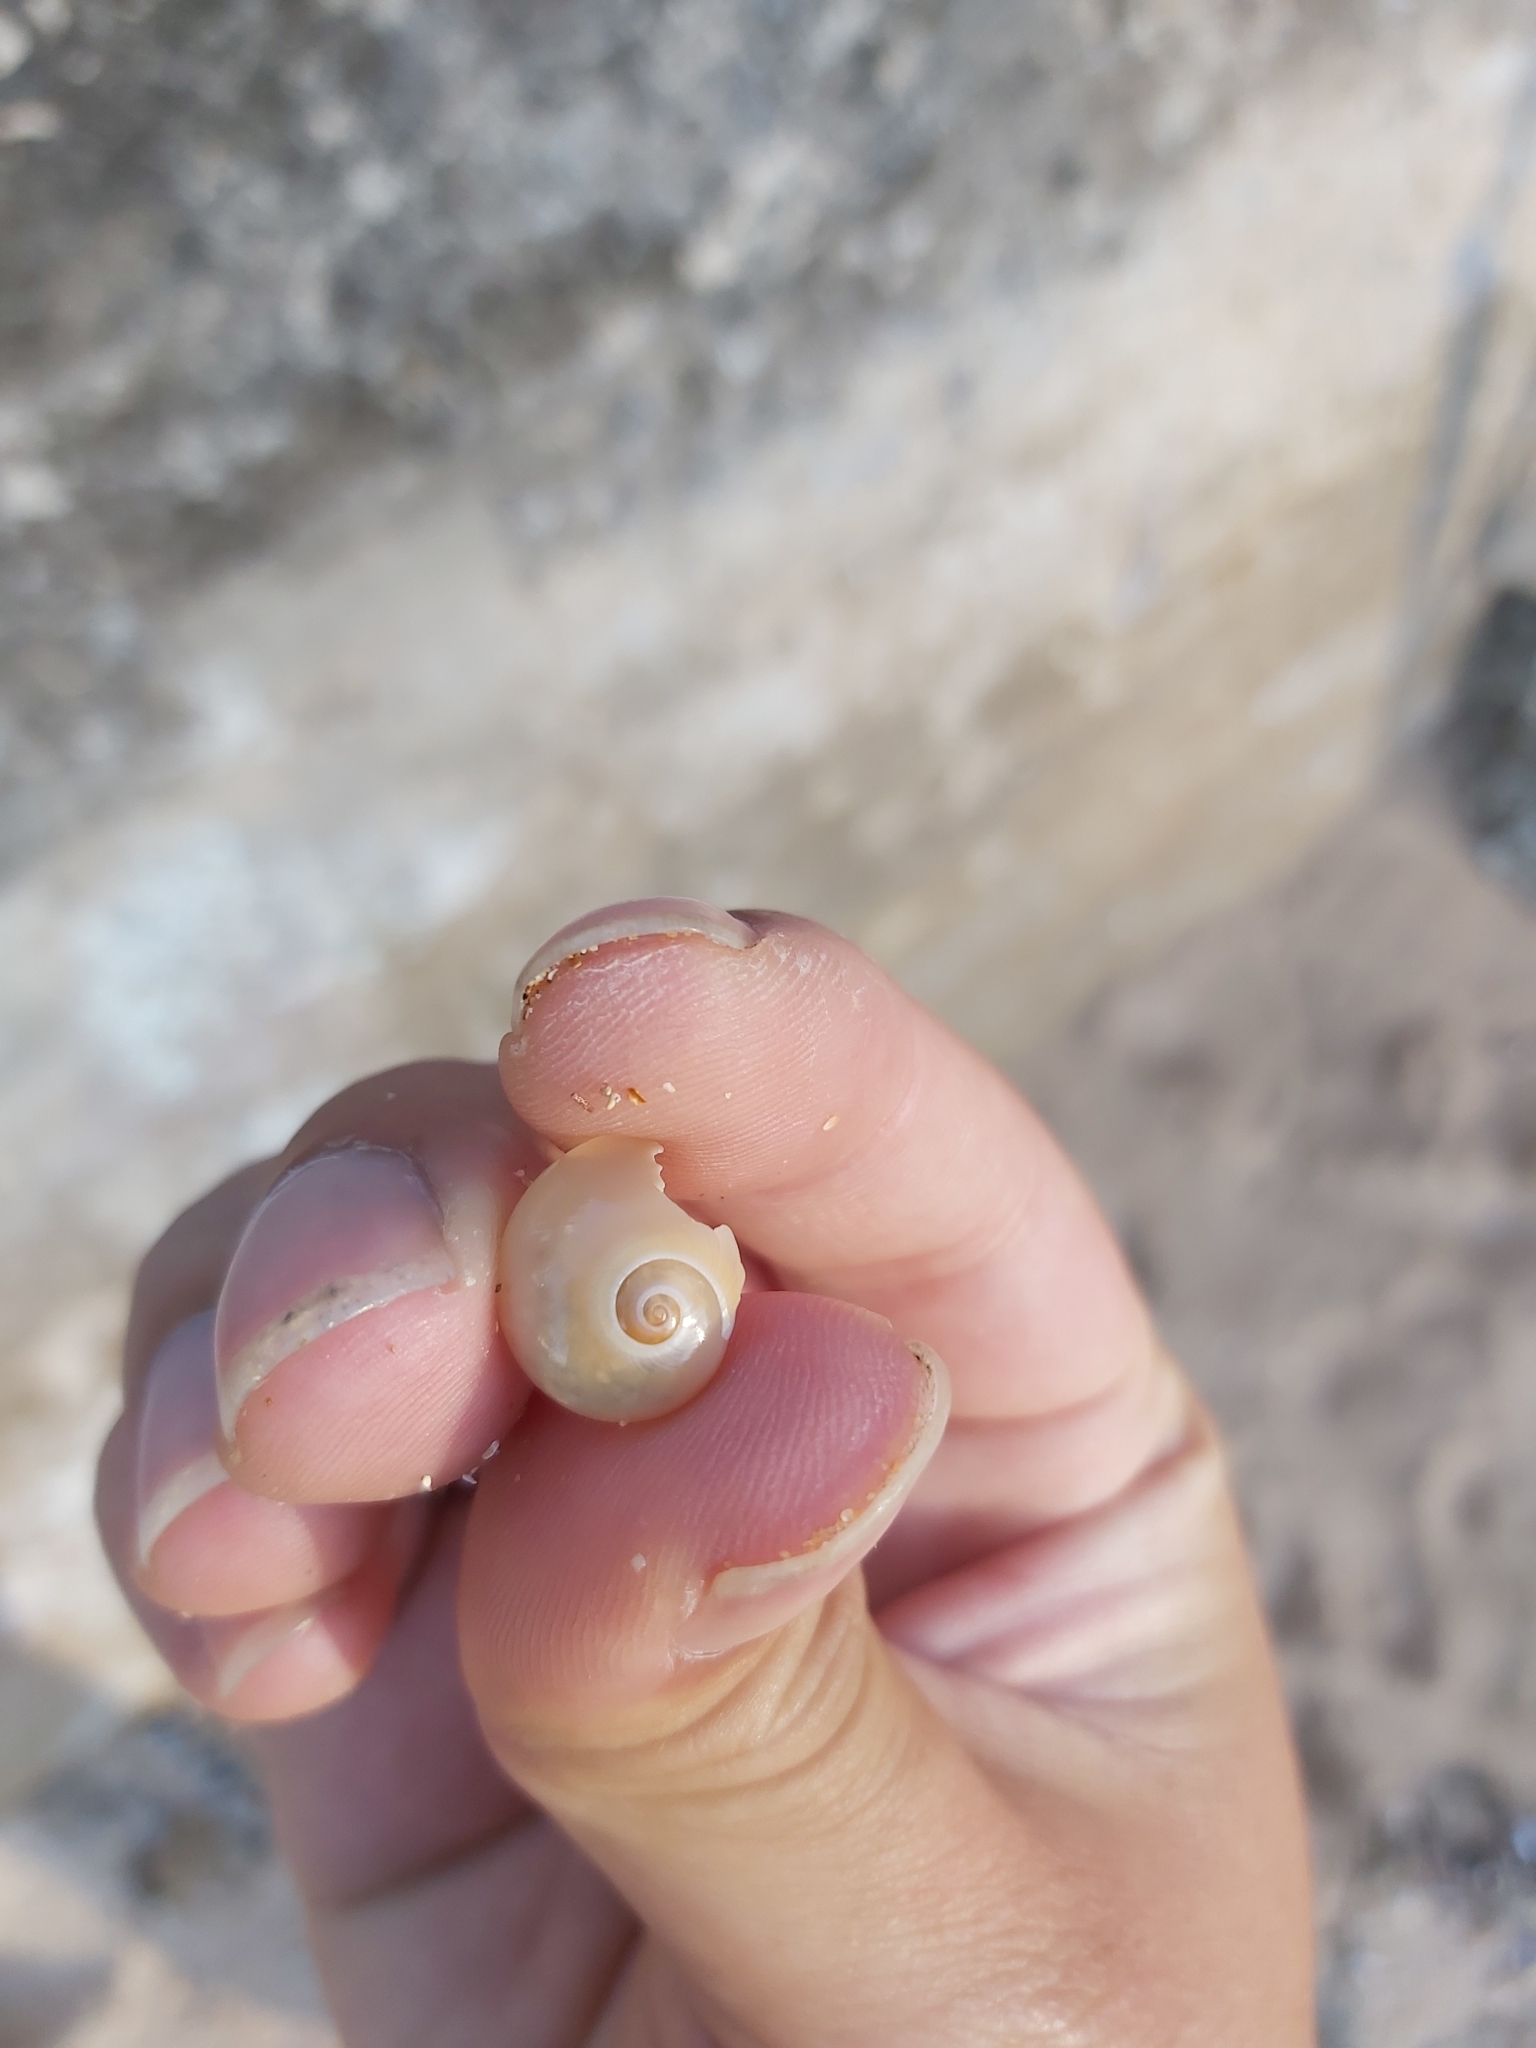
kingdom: Animalia
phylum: Mollusca
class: Gastropoda
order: Littorinimorpha
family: Naticidae
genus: Neverita
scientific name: Neverita didyma
